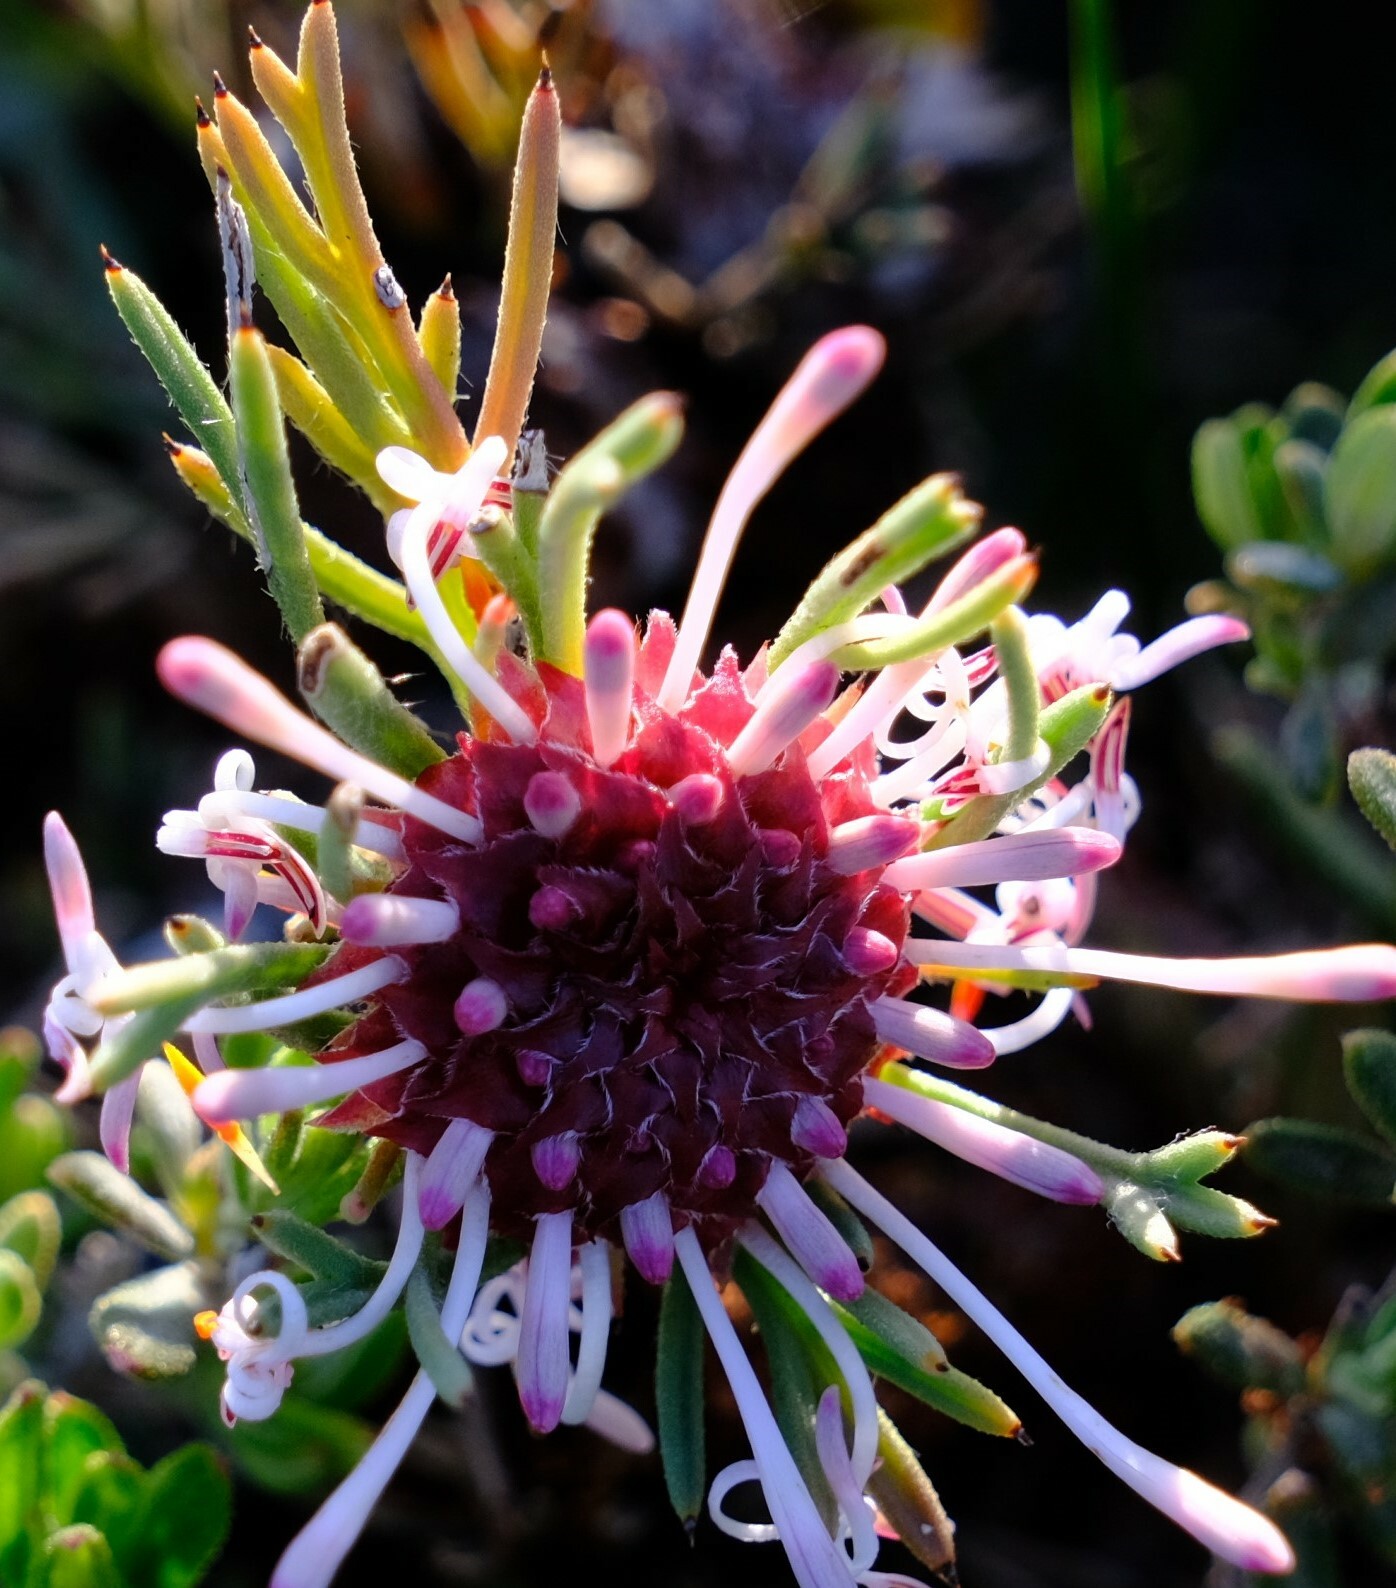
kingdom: Plantae
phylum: Tracheophyta
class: Magnoliopsida
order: Proteales
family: Proteaceae
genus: Isopogon
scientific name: Isopogon asper
